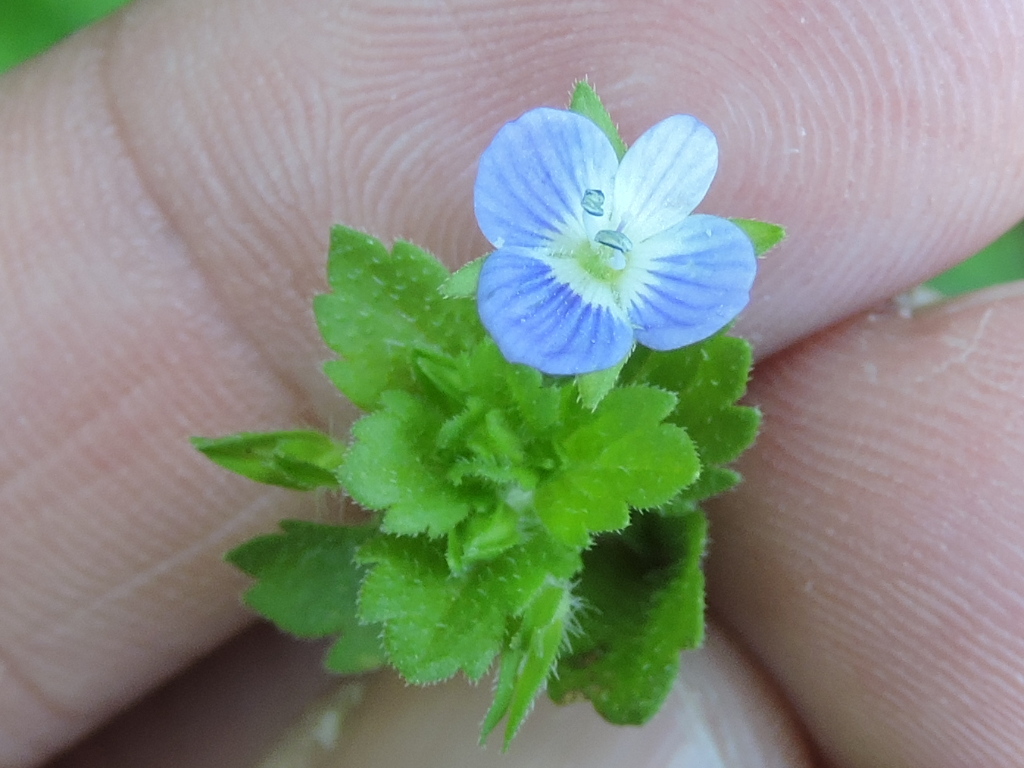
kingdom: Plantae
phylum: Tracheophyta
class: Magnoliopsida
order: Lamiales
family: Plantaginaceae
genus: Veronica
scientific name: Veronica persica
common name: Common field-speedwell
